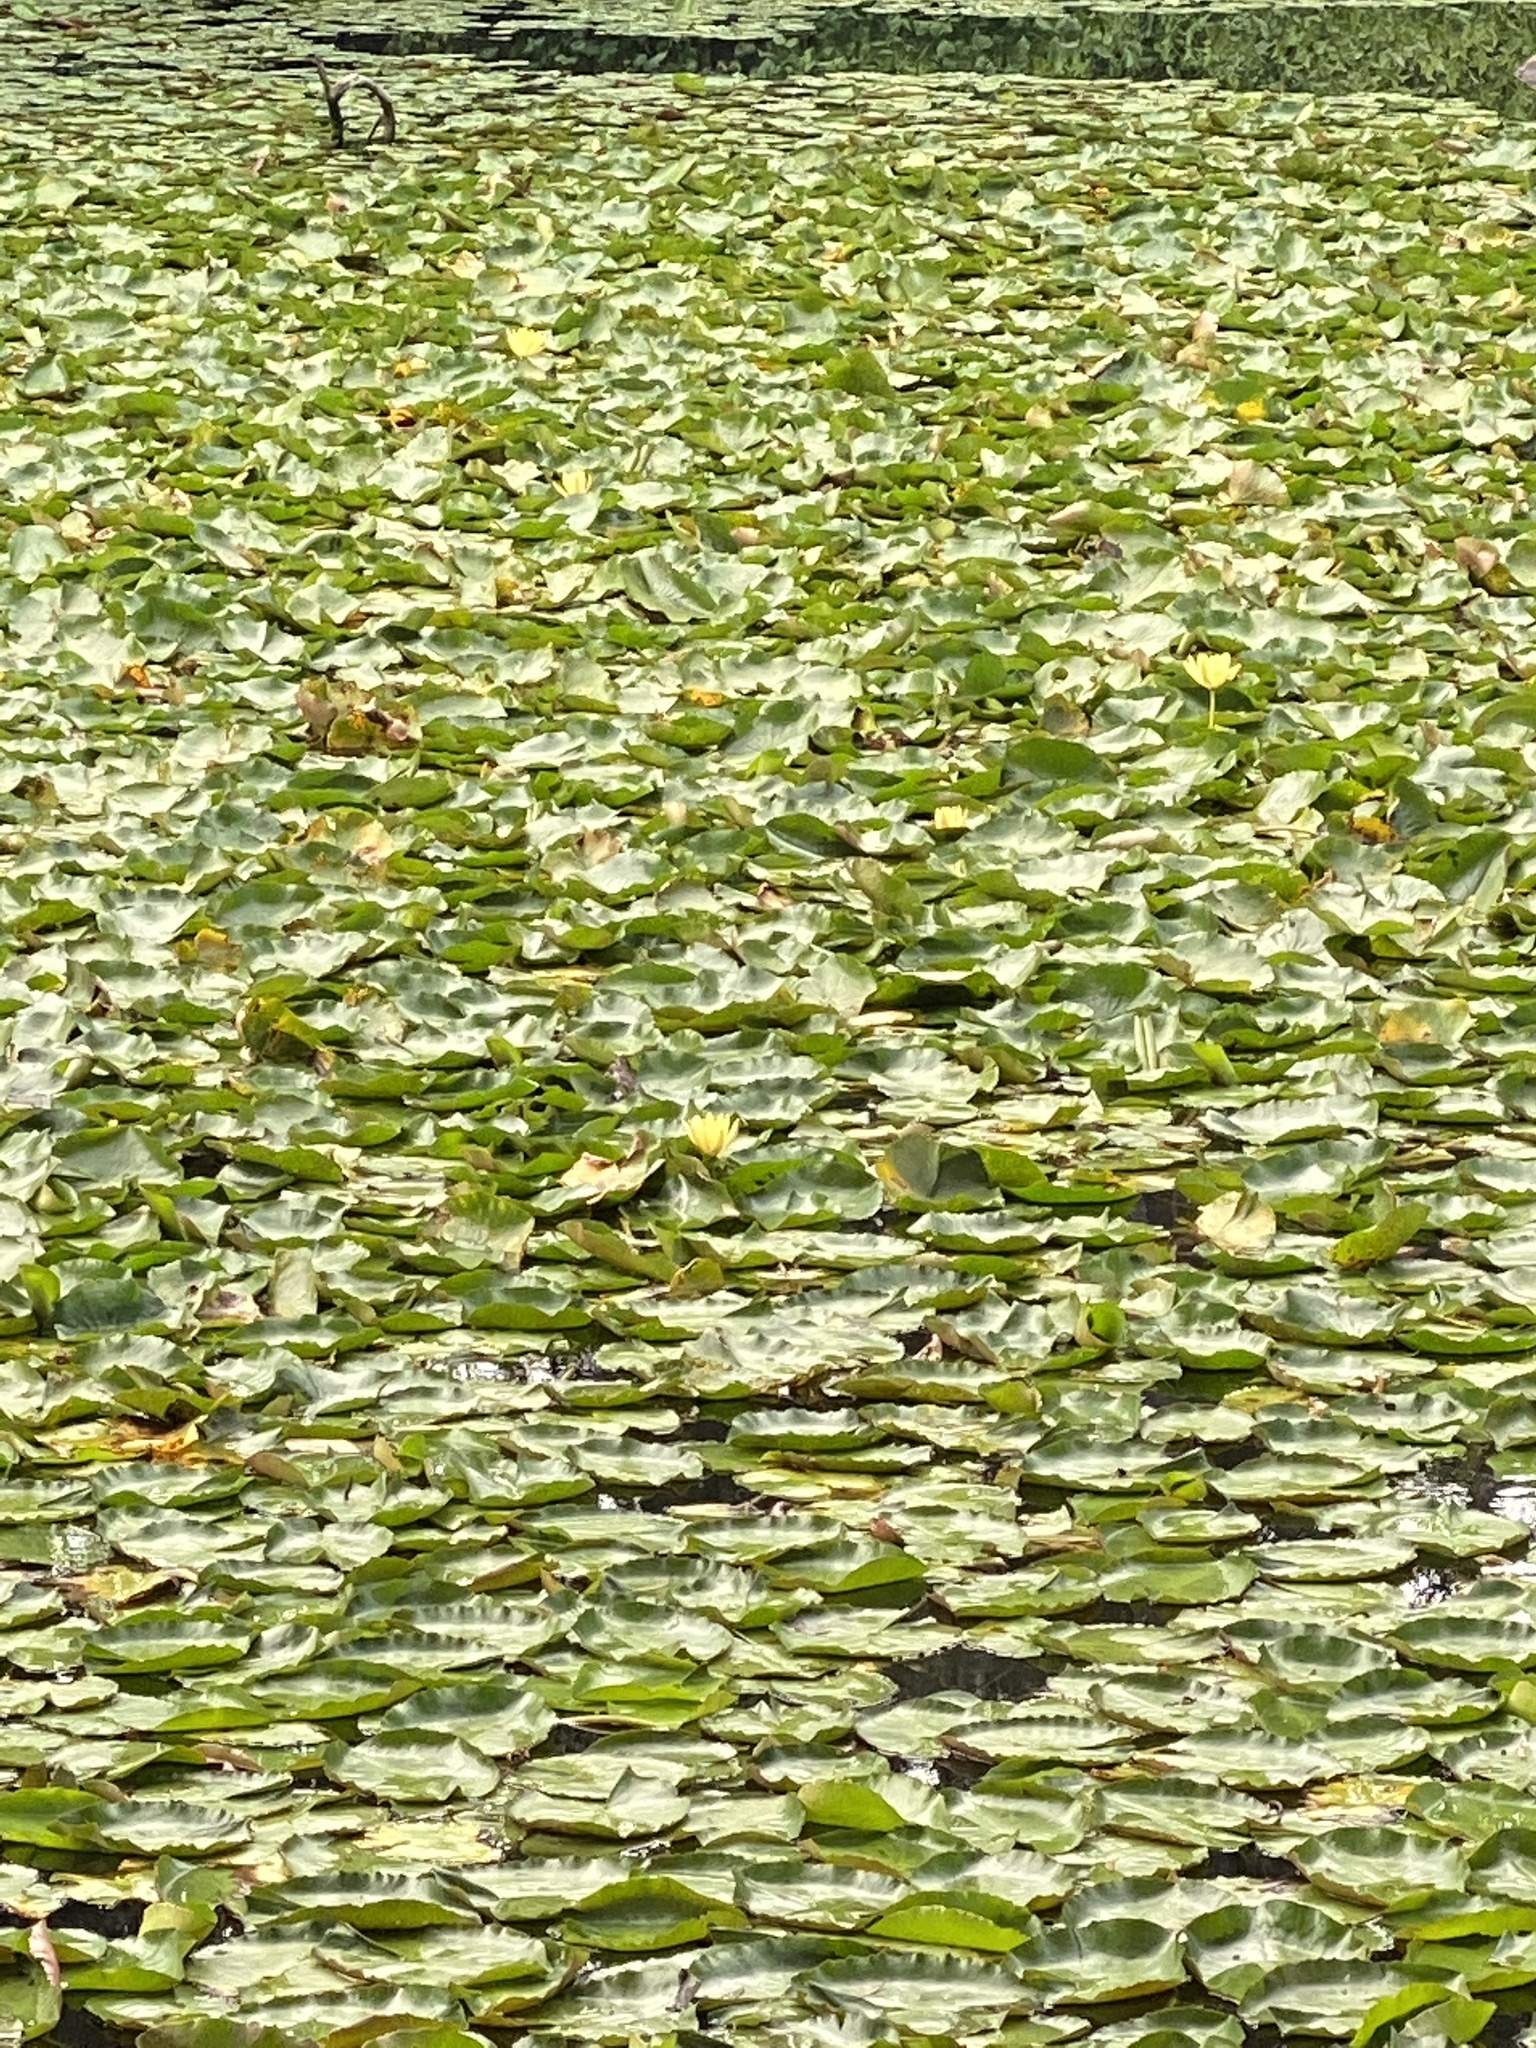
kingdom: Plantae
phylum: Tracheophyta
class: Magnoliopsida
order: Nymphaeales
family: Nymphaeaceae
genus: Nymphaea
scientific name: Nymphaea mexicana
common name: Banana water-lily
